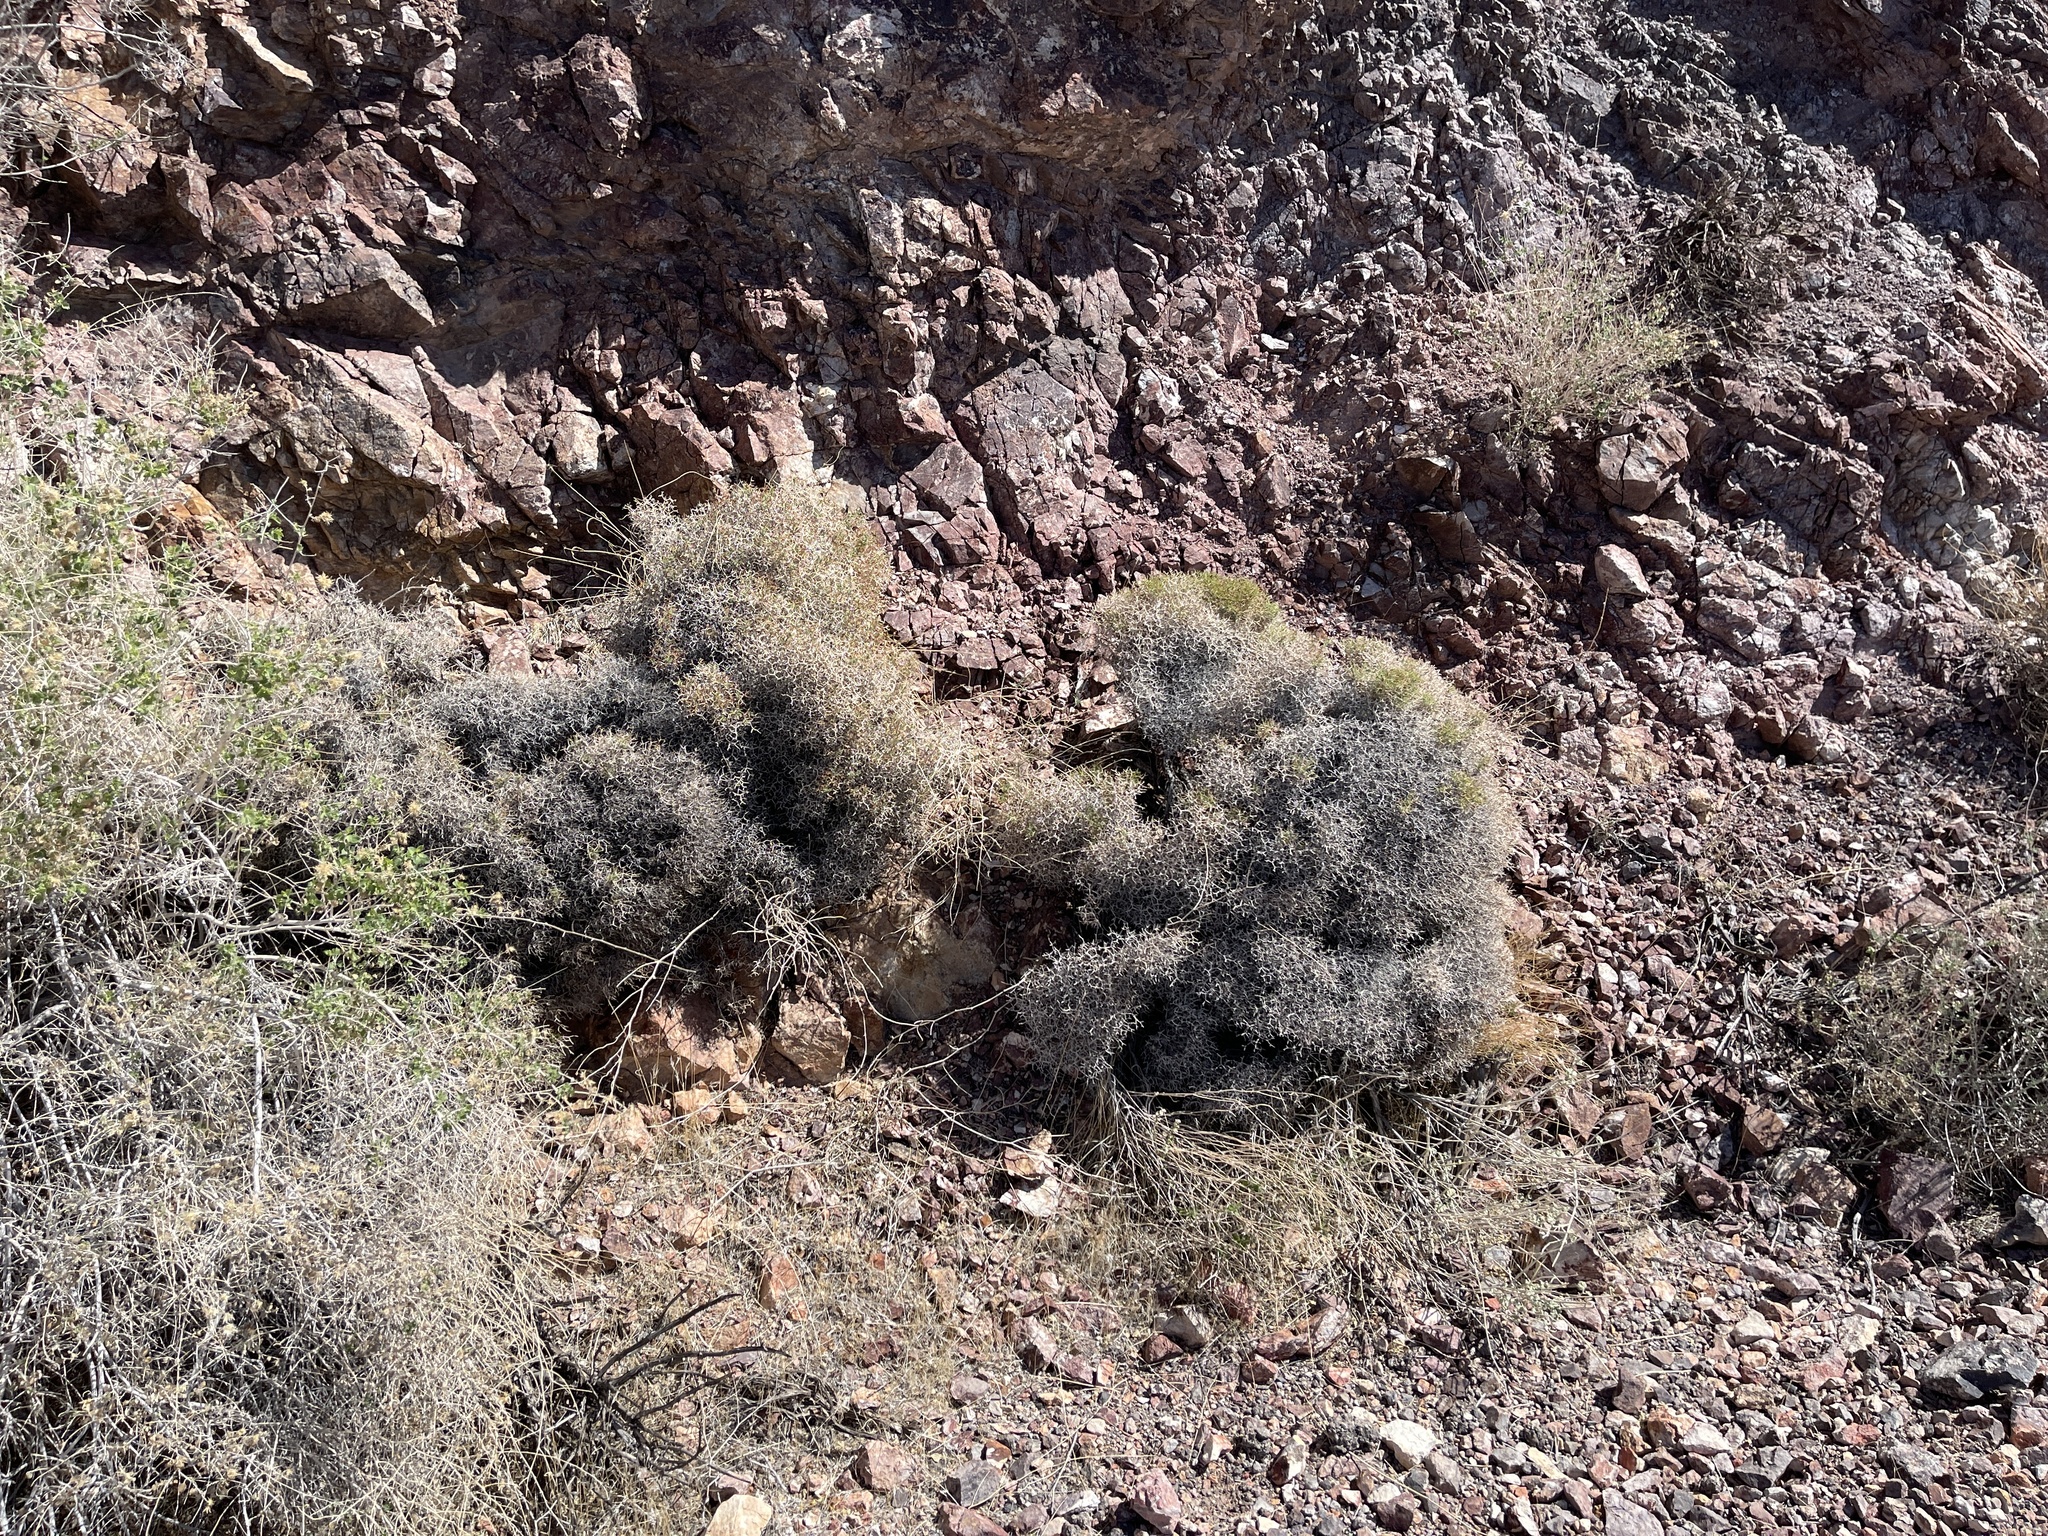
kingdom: Plantae
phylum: Tracheophyta
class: Magnoliopsida
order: Caryophyllales
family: Polygonaceae
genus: Eriogonum
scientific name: Eriogonum heermannii
